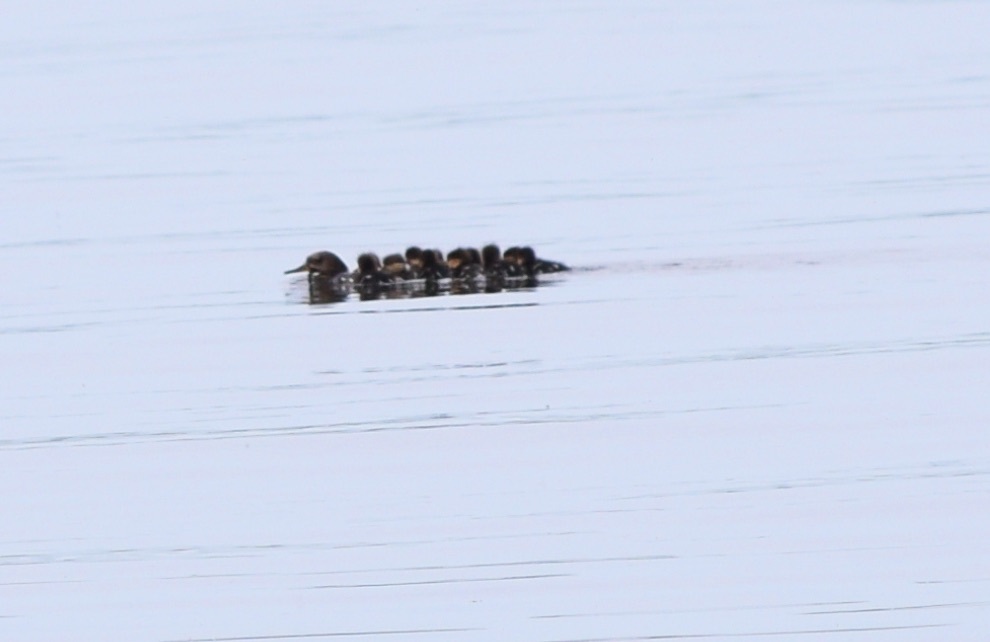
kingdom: Animalia
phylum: Chordata
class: Aves
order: Anseriformes
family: Anatidae
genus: Mergus
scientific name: Mergus merganser
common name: Common merganser
